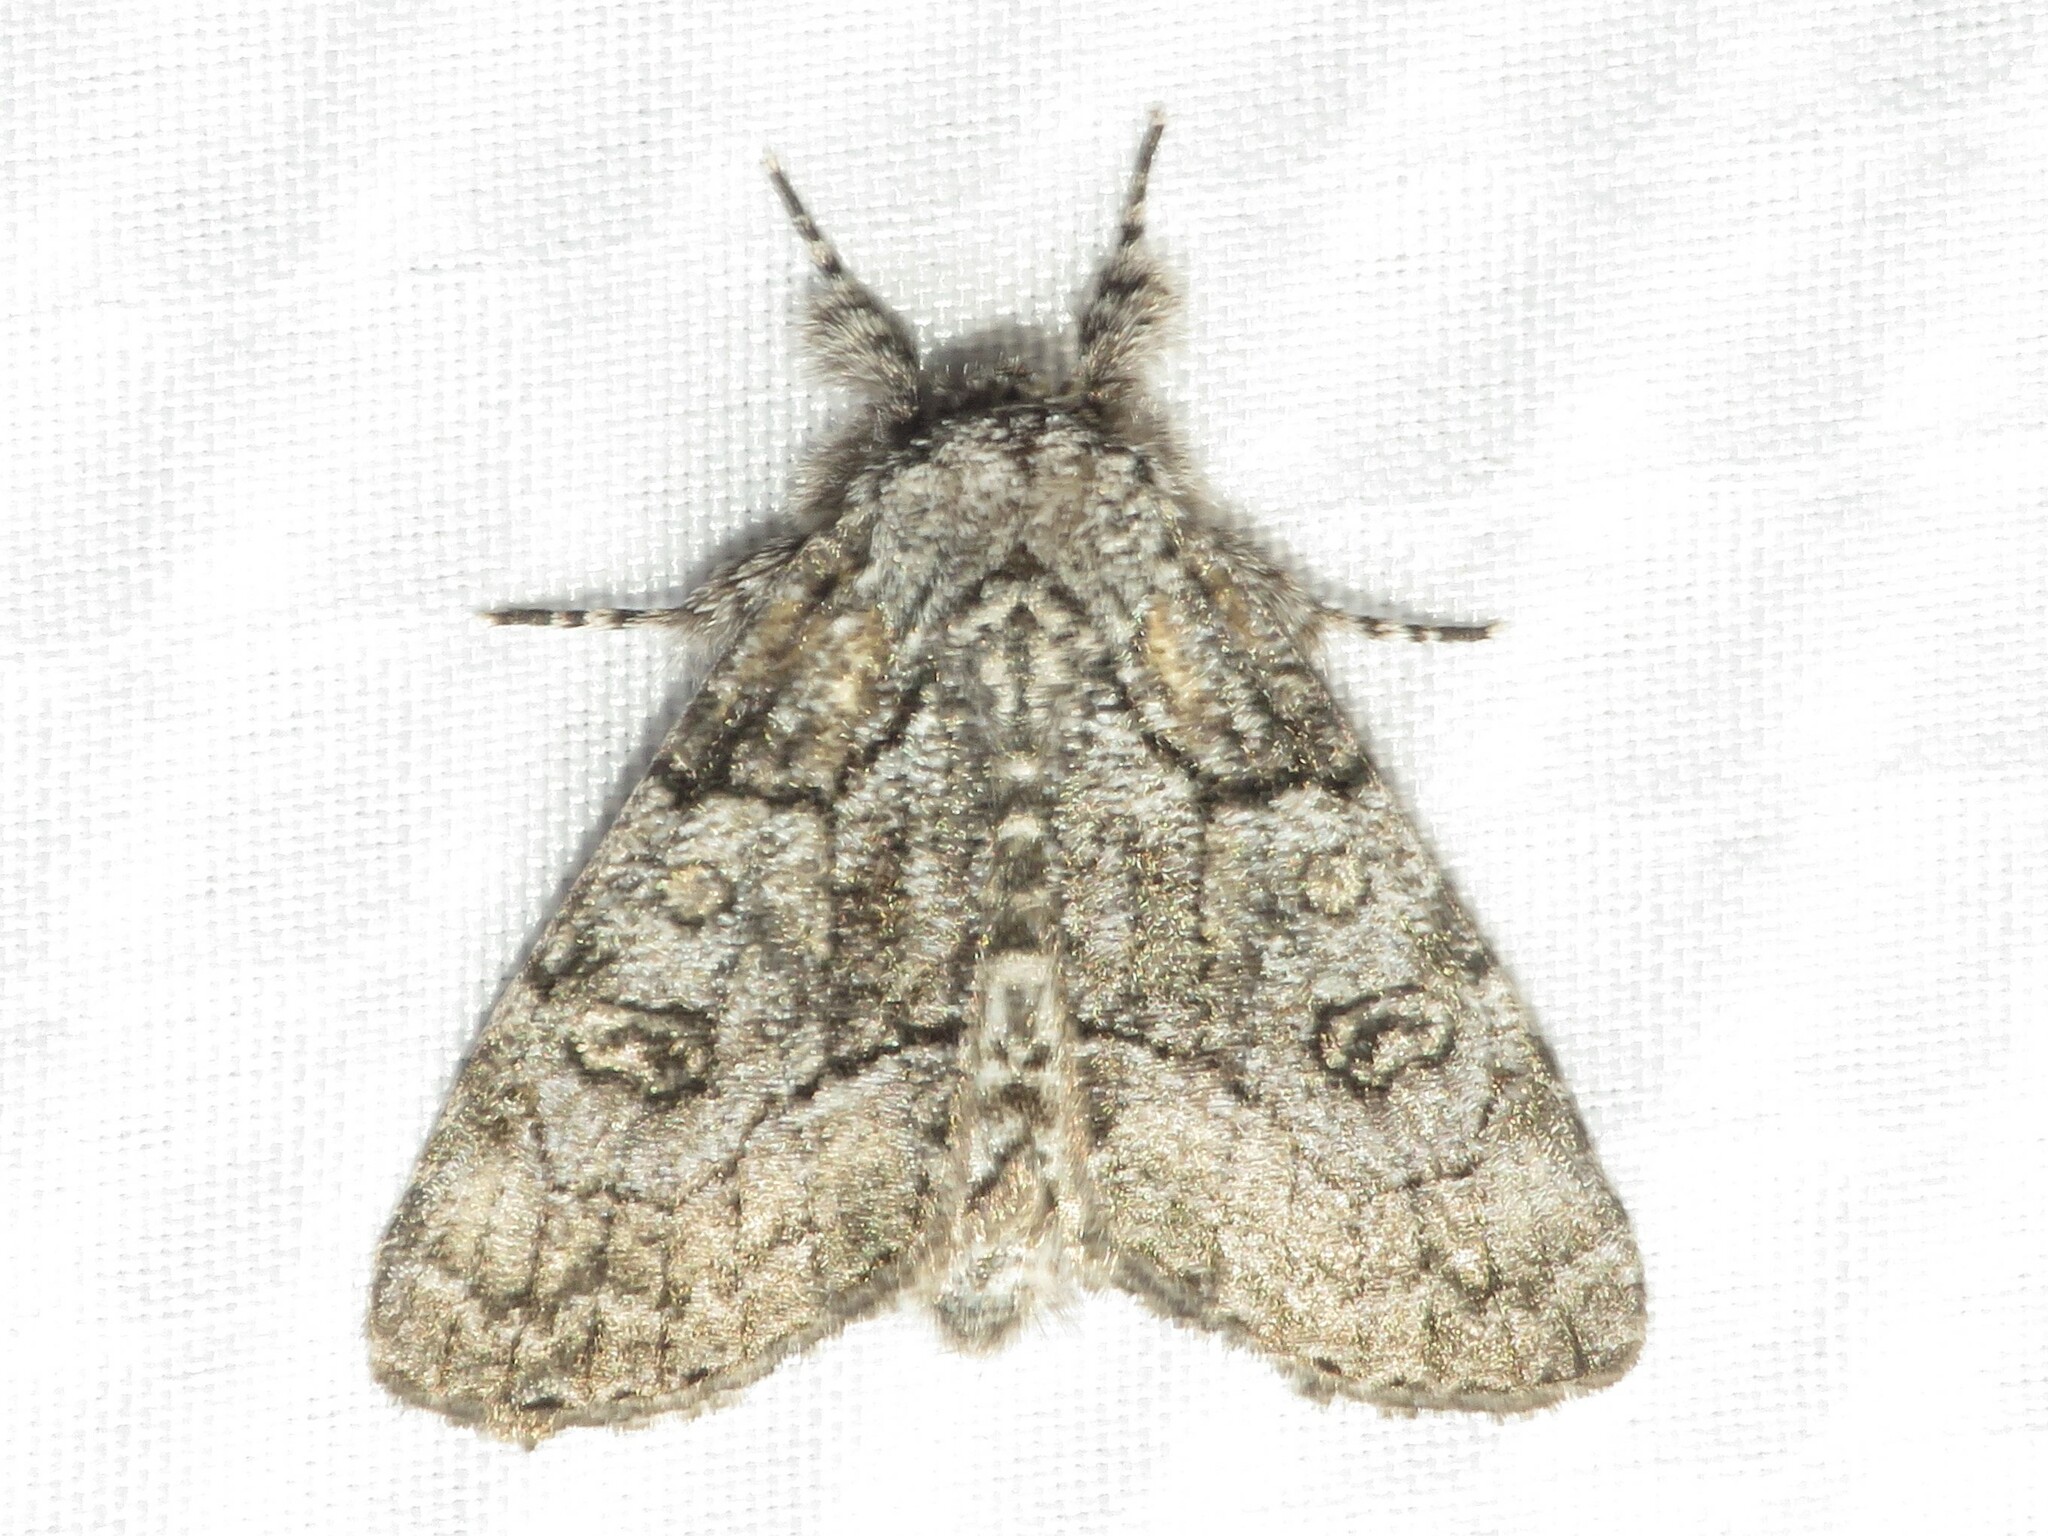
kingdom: Animalia
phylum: Arthropoda
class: Insecta
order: Lepidoptera
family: Noctuidae
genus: Raphia
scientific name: Raphia frater
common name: Brother
